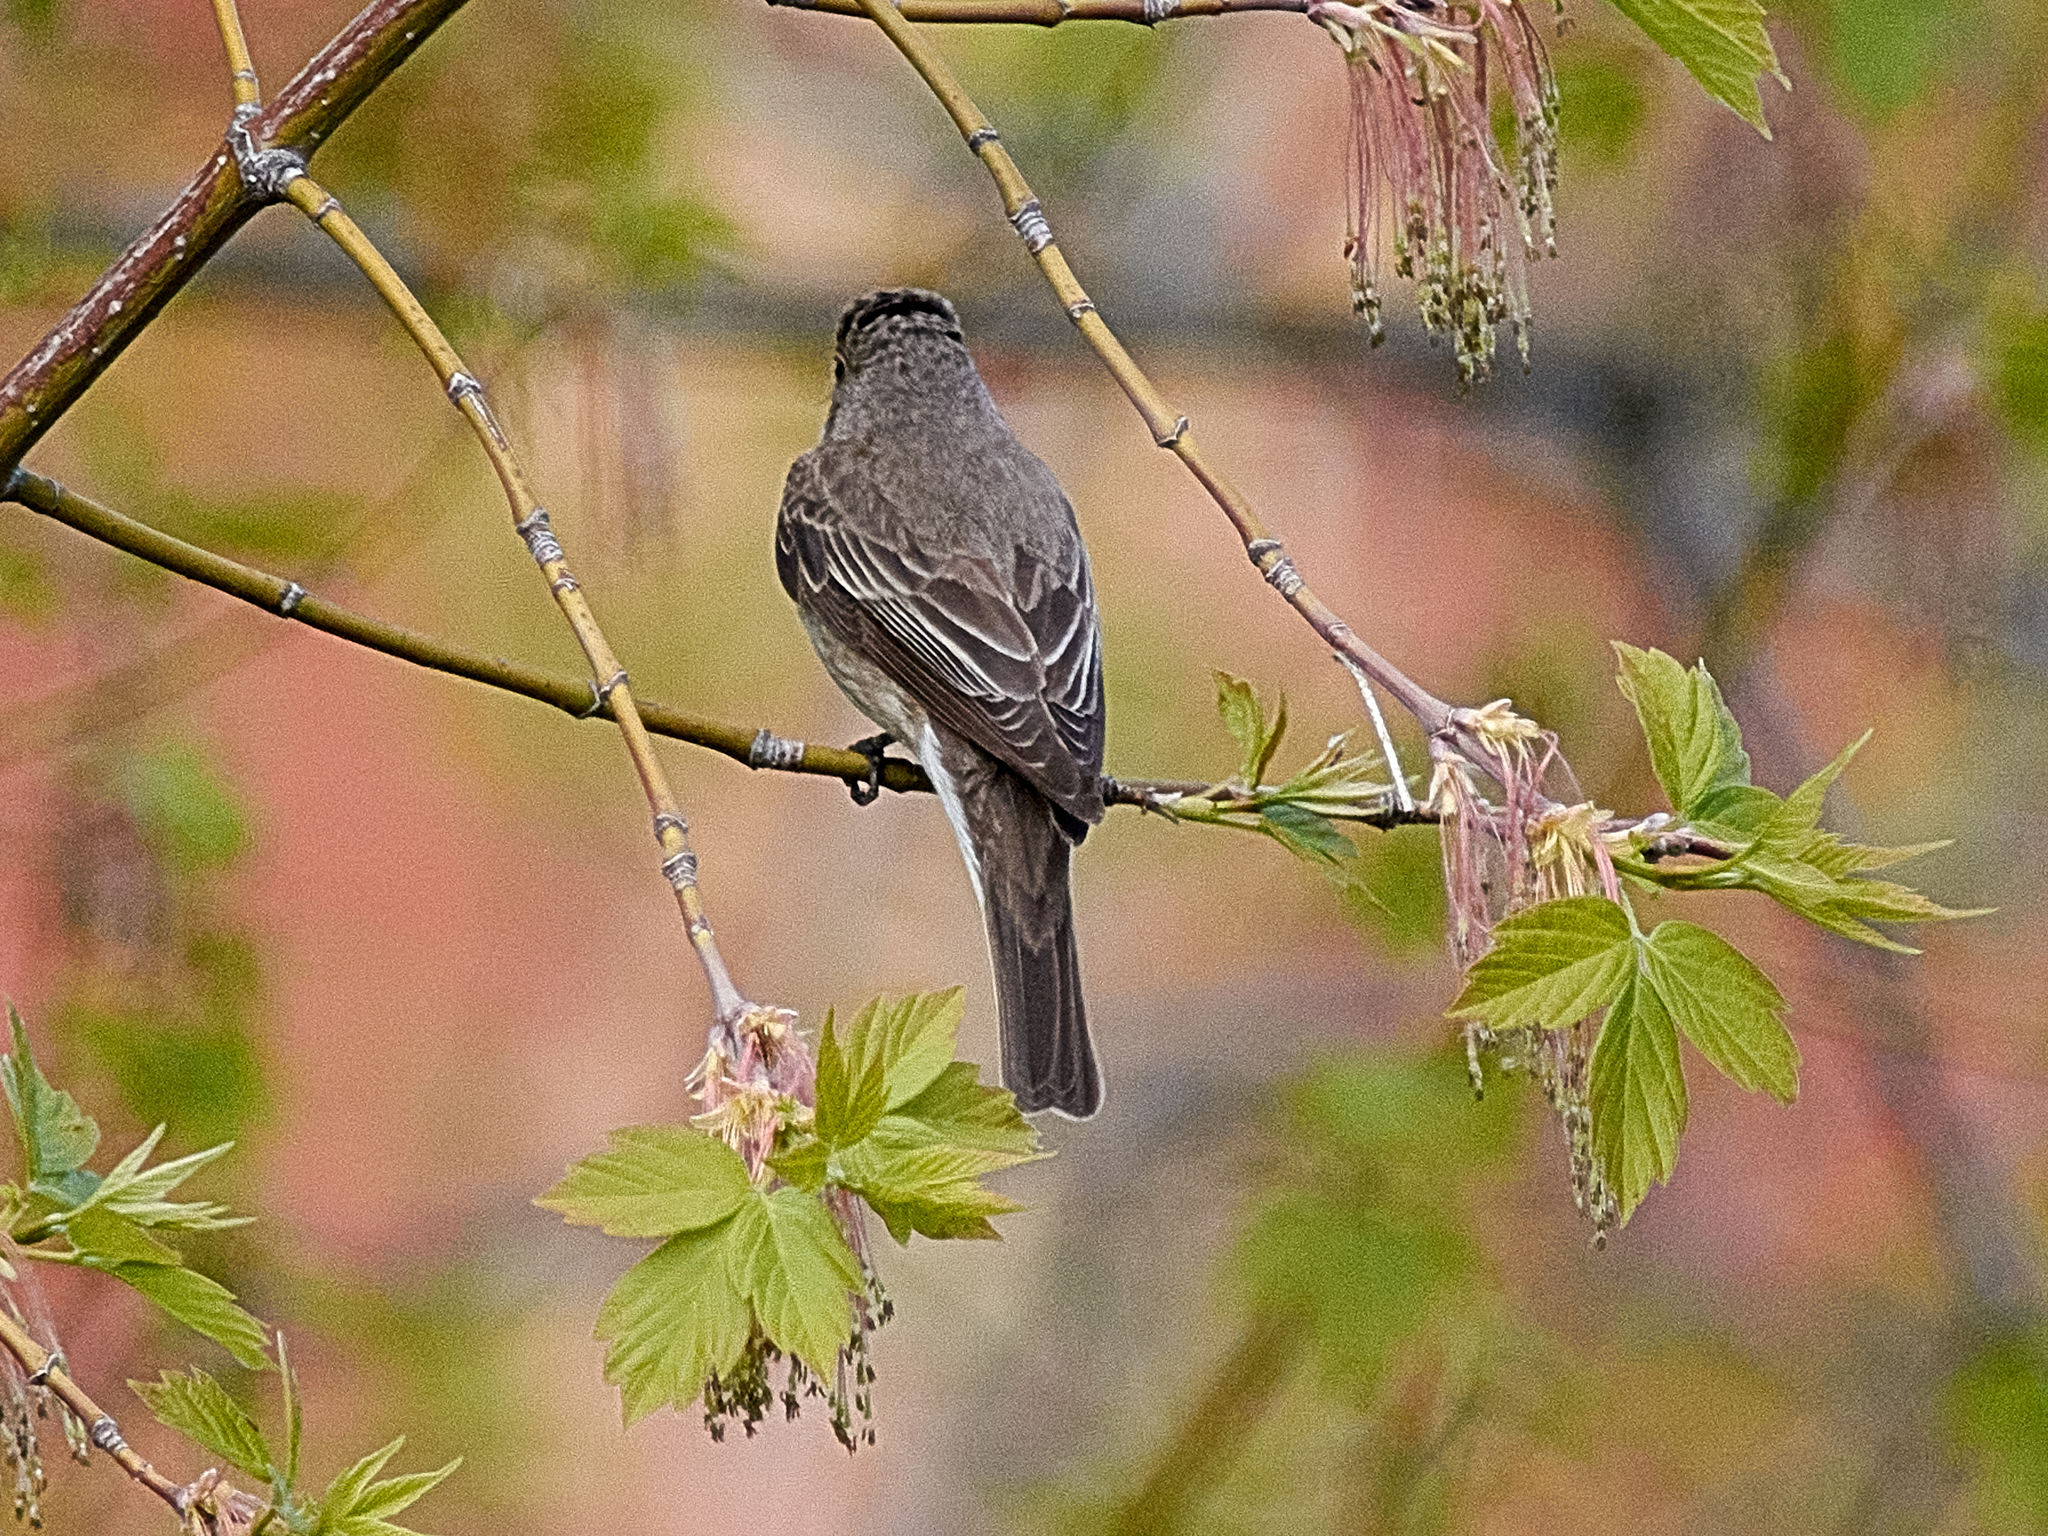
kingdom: Animalia
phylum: Chordata
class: Aves
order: Passeriformes
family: Muscicapidae
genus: Muscicapa
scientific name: Muscicapa striata
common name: Spotted flycatcher
